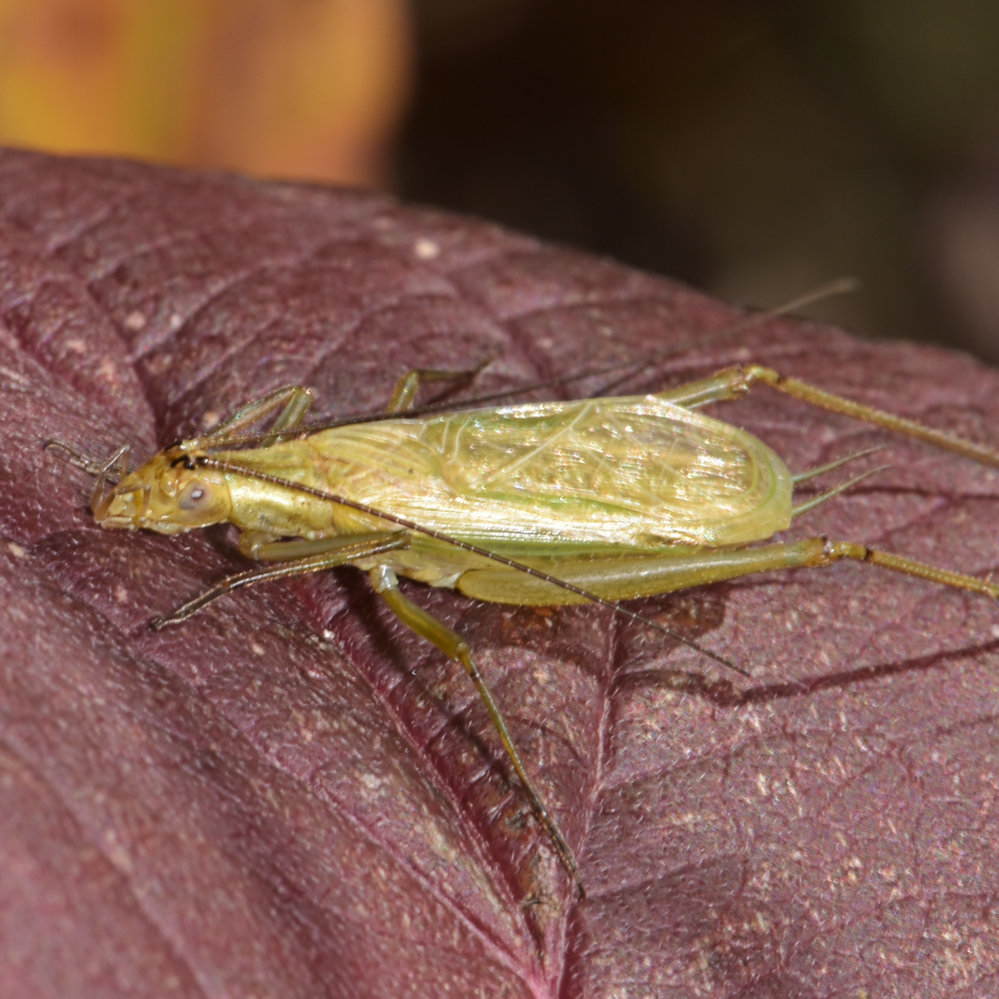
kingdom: Animalia
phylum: Arthropoda
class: Insecta
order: Orthoptera
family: Gryllidae
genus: Oecanthus
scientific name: Oecanthus nigricornis
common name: Black-horned tree cricket
